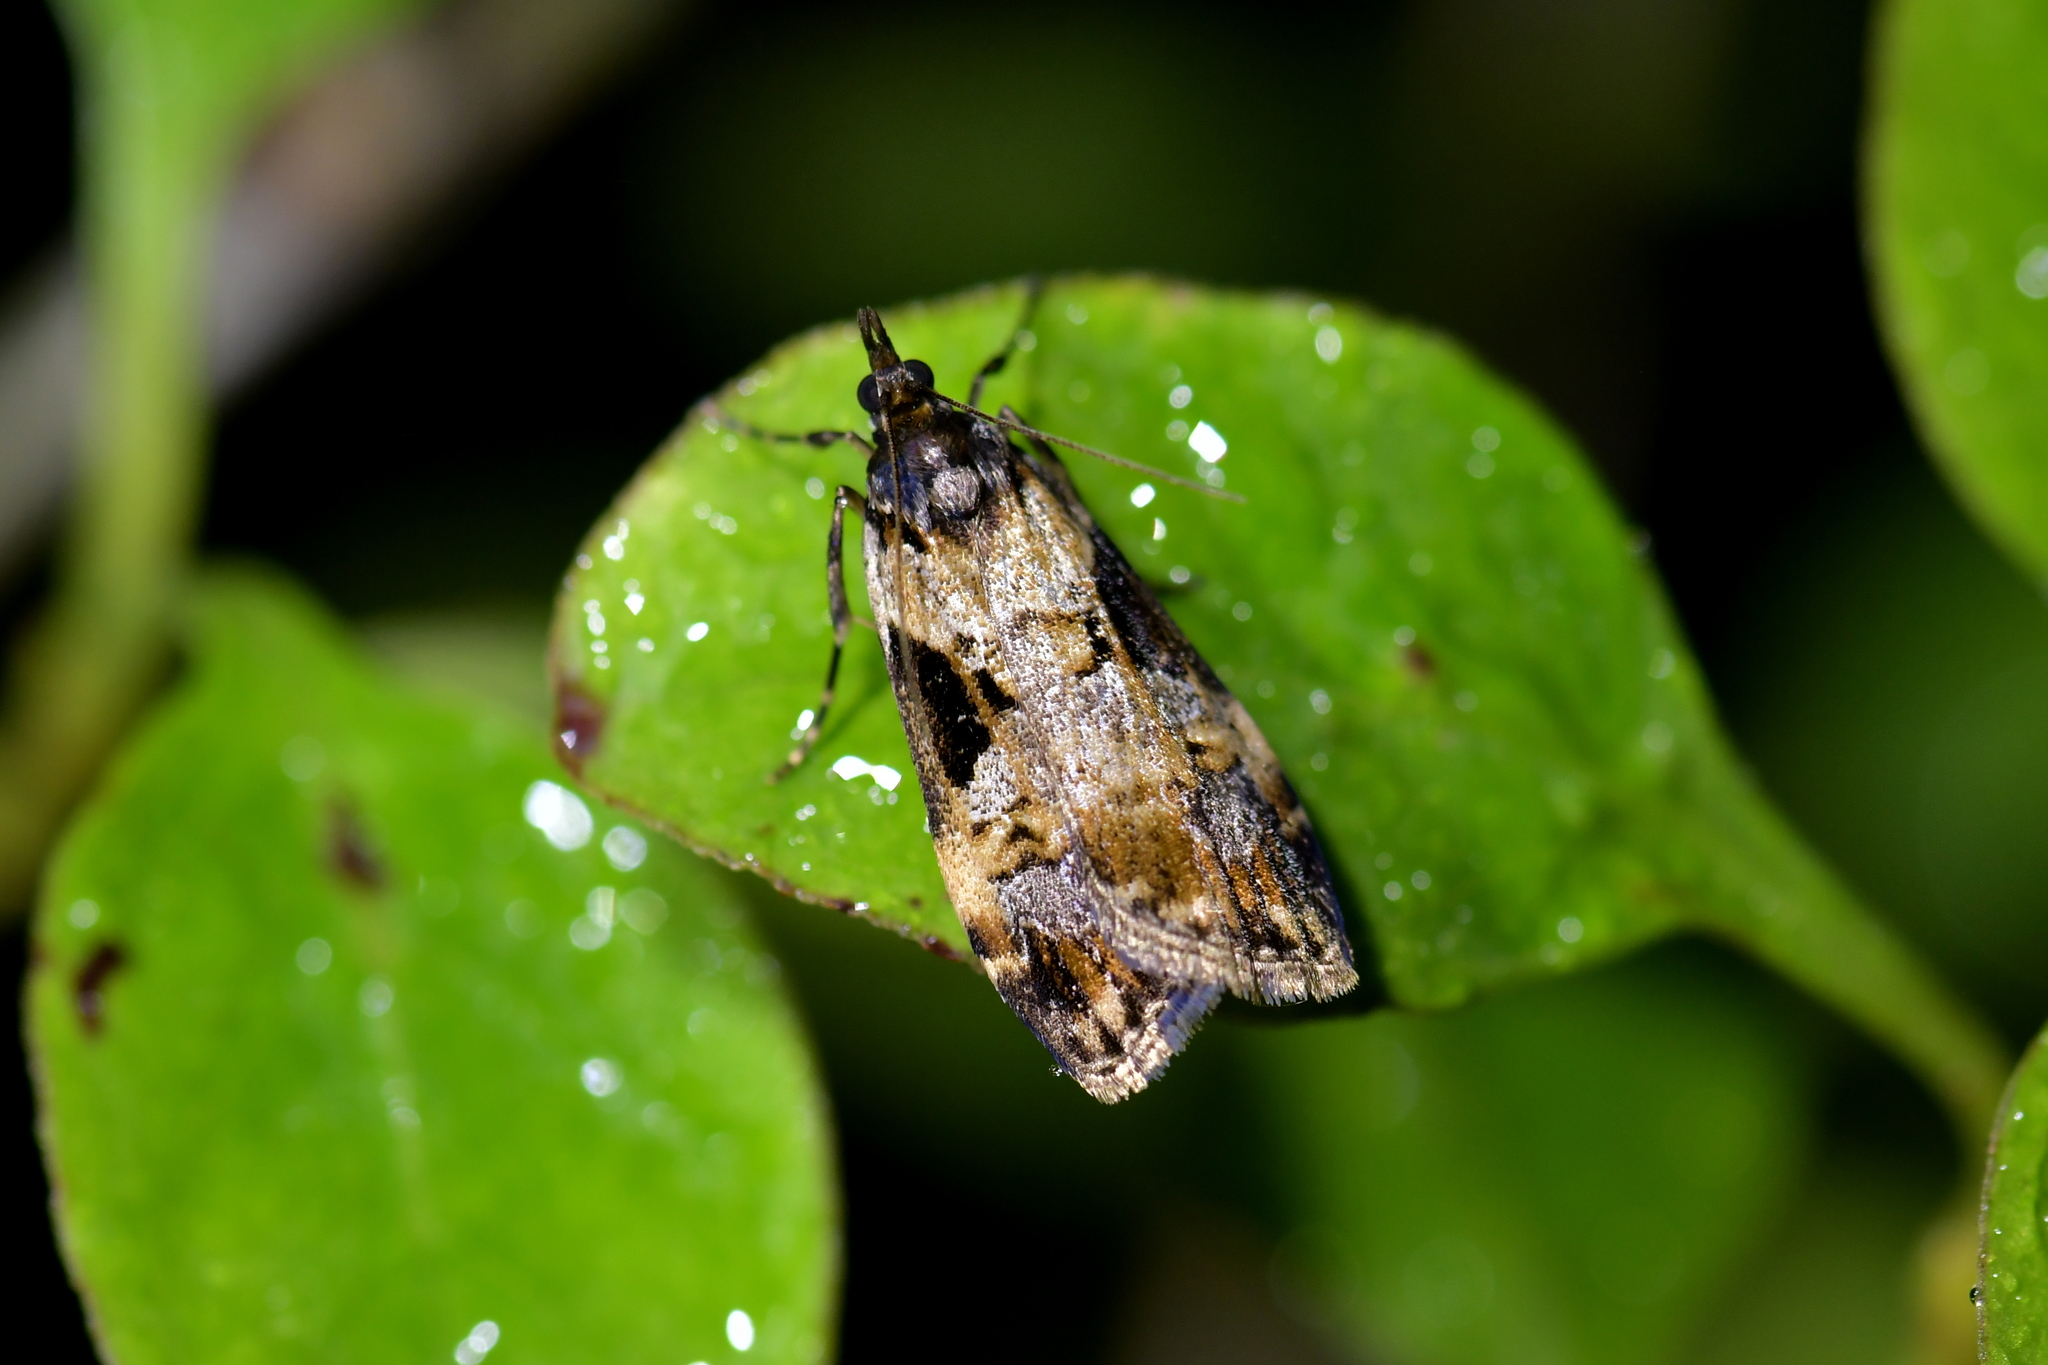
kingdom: Animalia
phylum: Arthropoda
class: Insecta
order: Lepidoptera
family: Crambidae
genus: Scoparia
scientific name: Scoparia acharis
